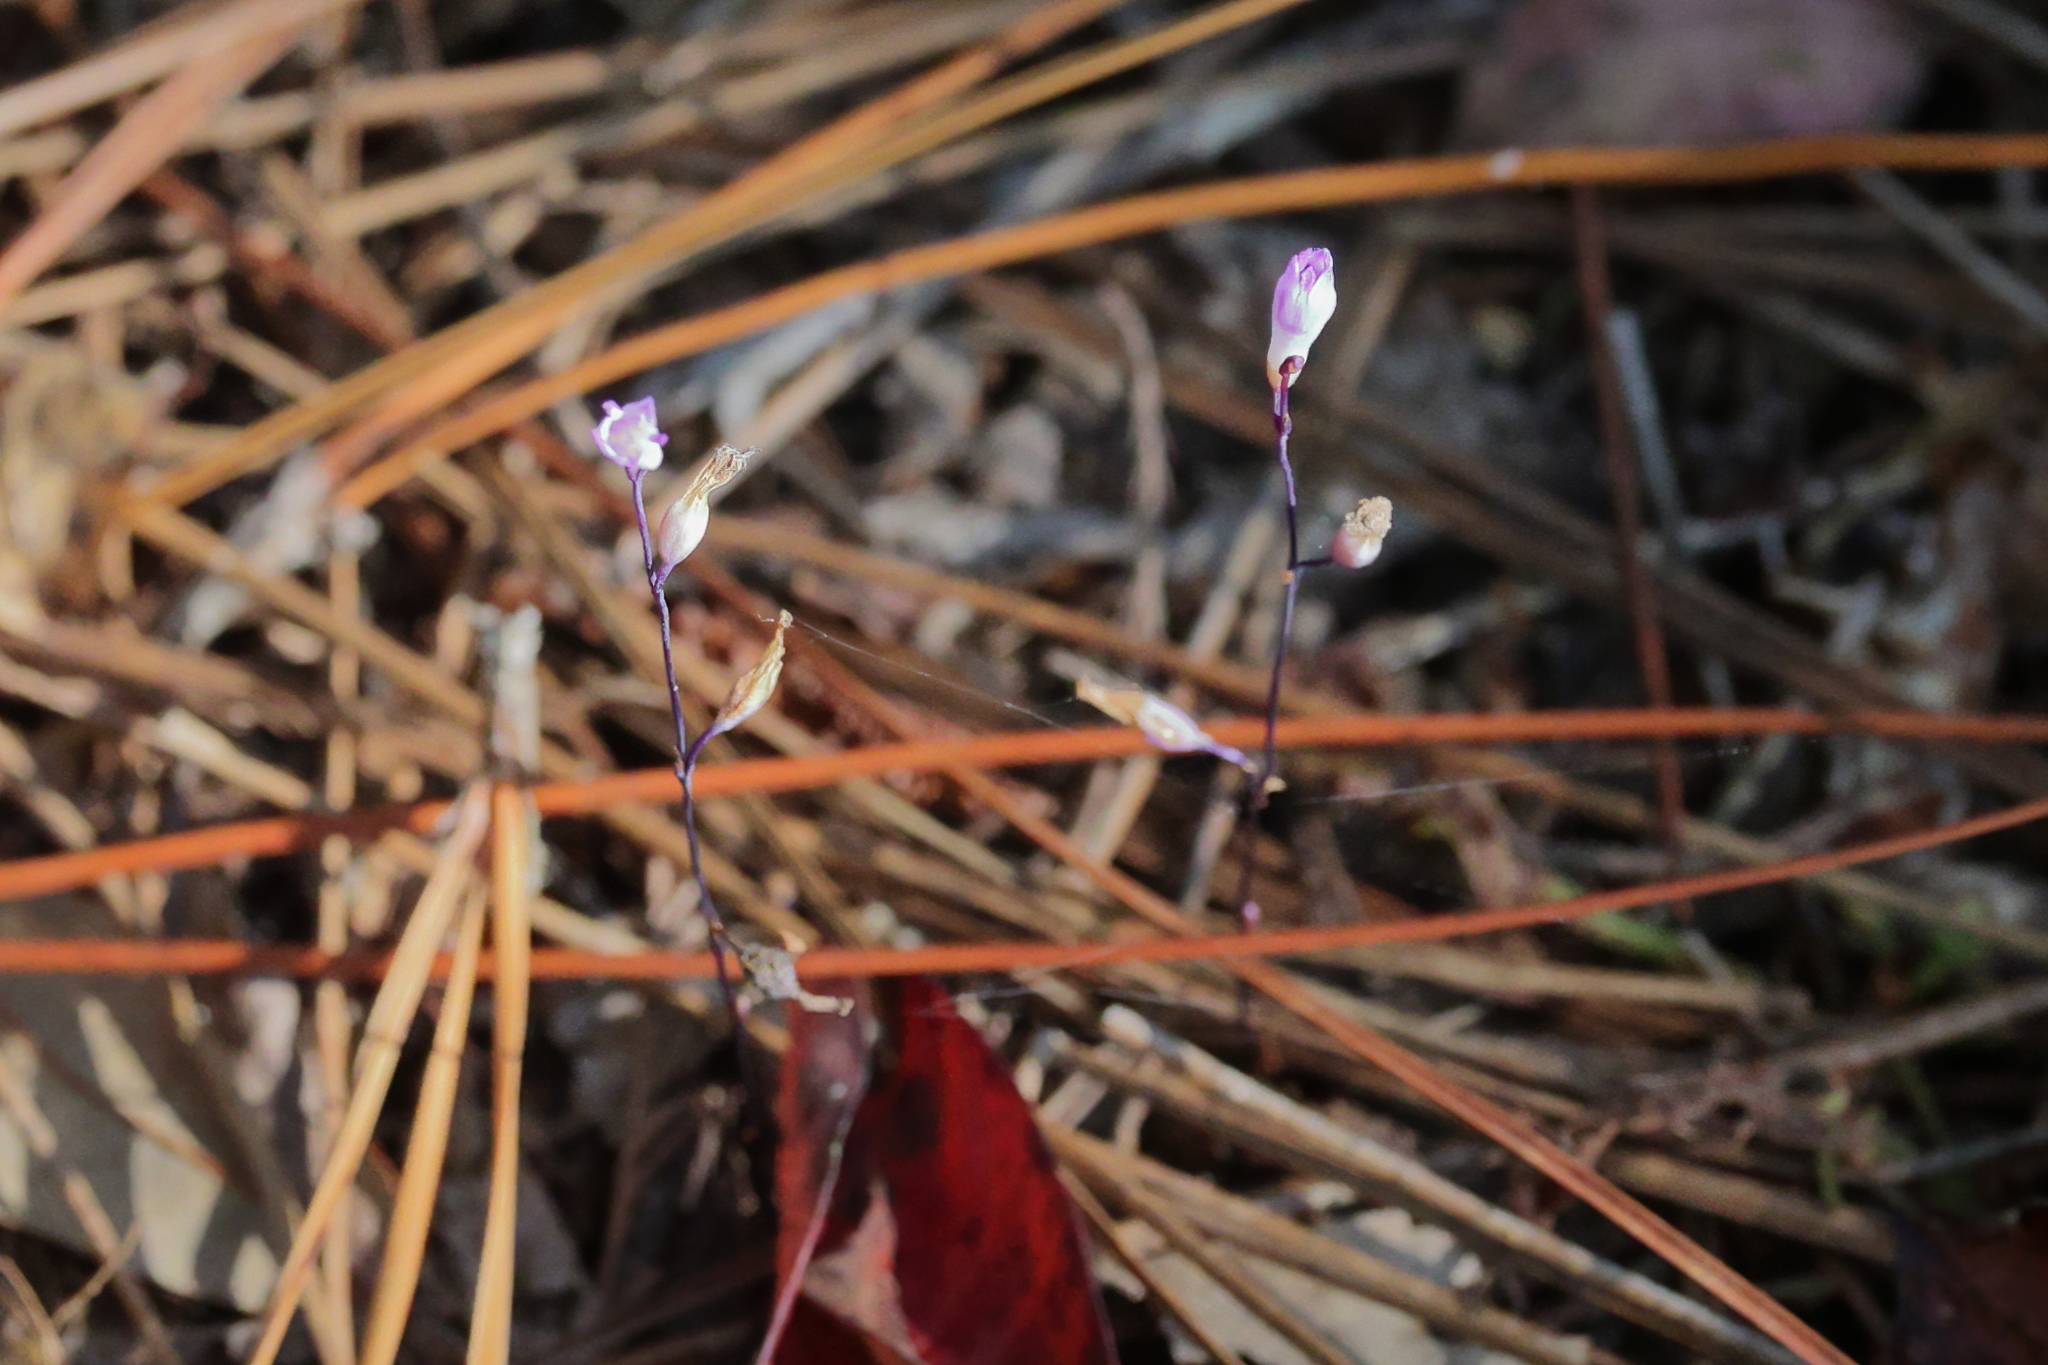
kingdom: Plantae
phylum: Tracheophyta
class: Liliopsida
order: Dioscoreales
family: Burmanniaceae
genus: Apteria
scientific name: Apteria aphylla
